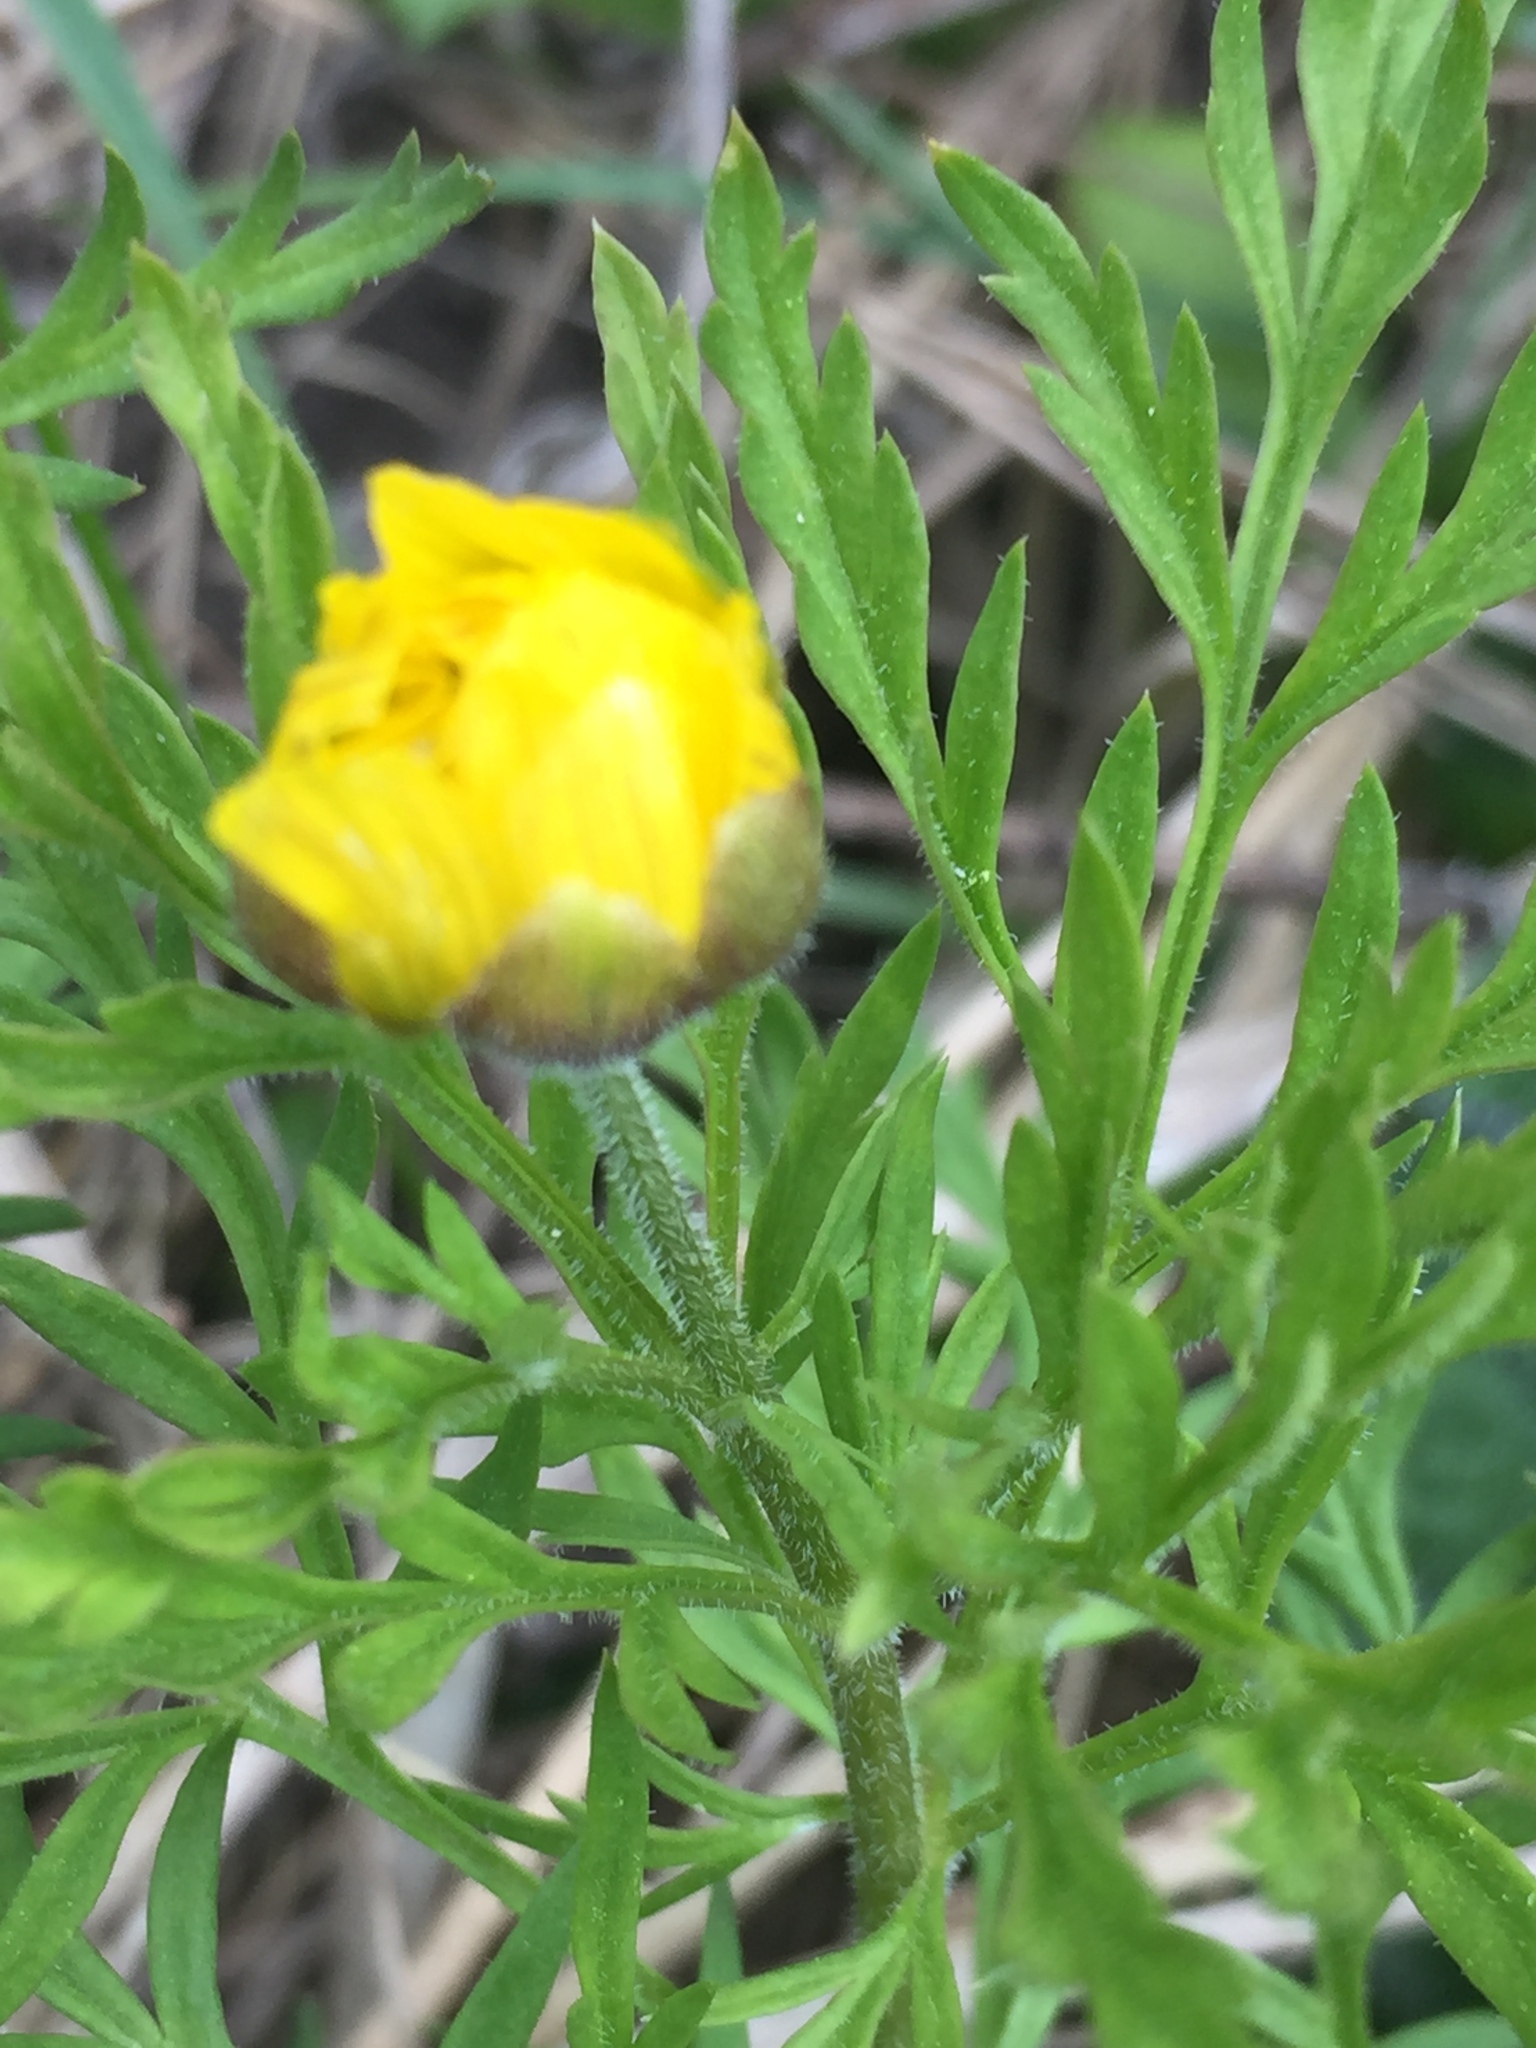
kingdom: Plantae
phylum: Tracheophyta
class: Magnoliopsida
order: Ranunculales
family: Ranunculaceae
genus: Adonis
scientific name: Adonis volgensis
